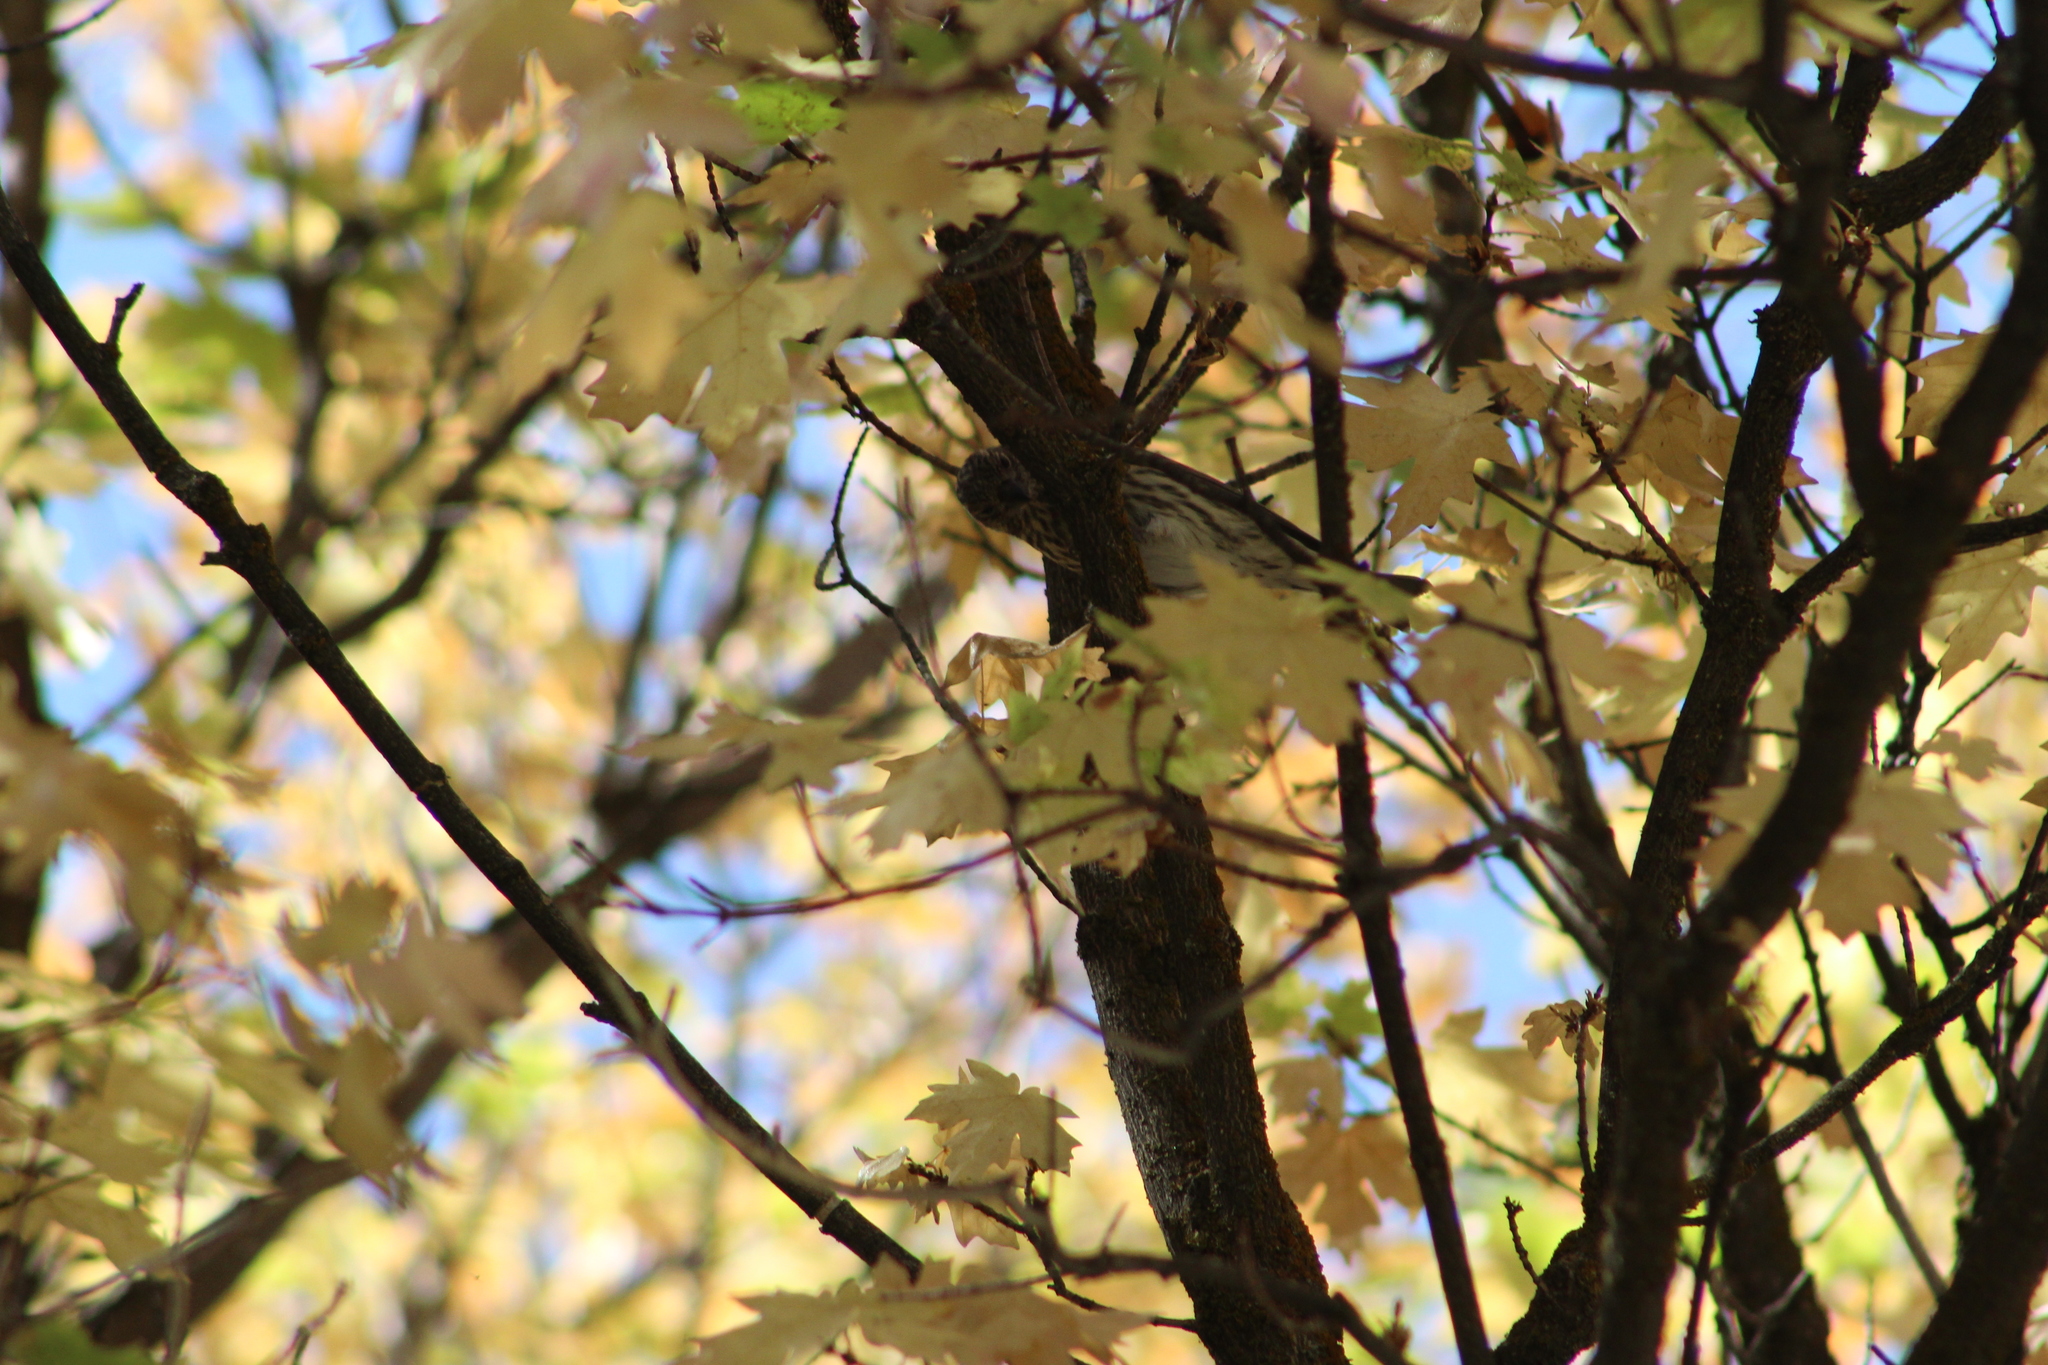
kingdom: Animalia
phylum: Chordata
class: Aves
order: Passeriformes
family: Fringillidae
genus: Haemorhous
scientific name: Haemorhous cassinii
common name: Cassin's finch
